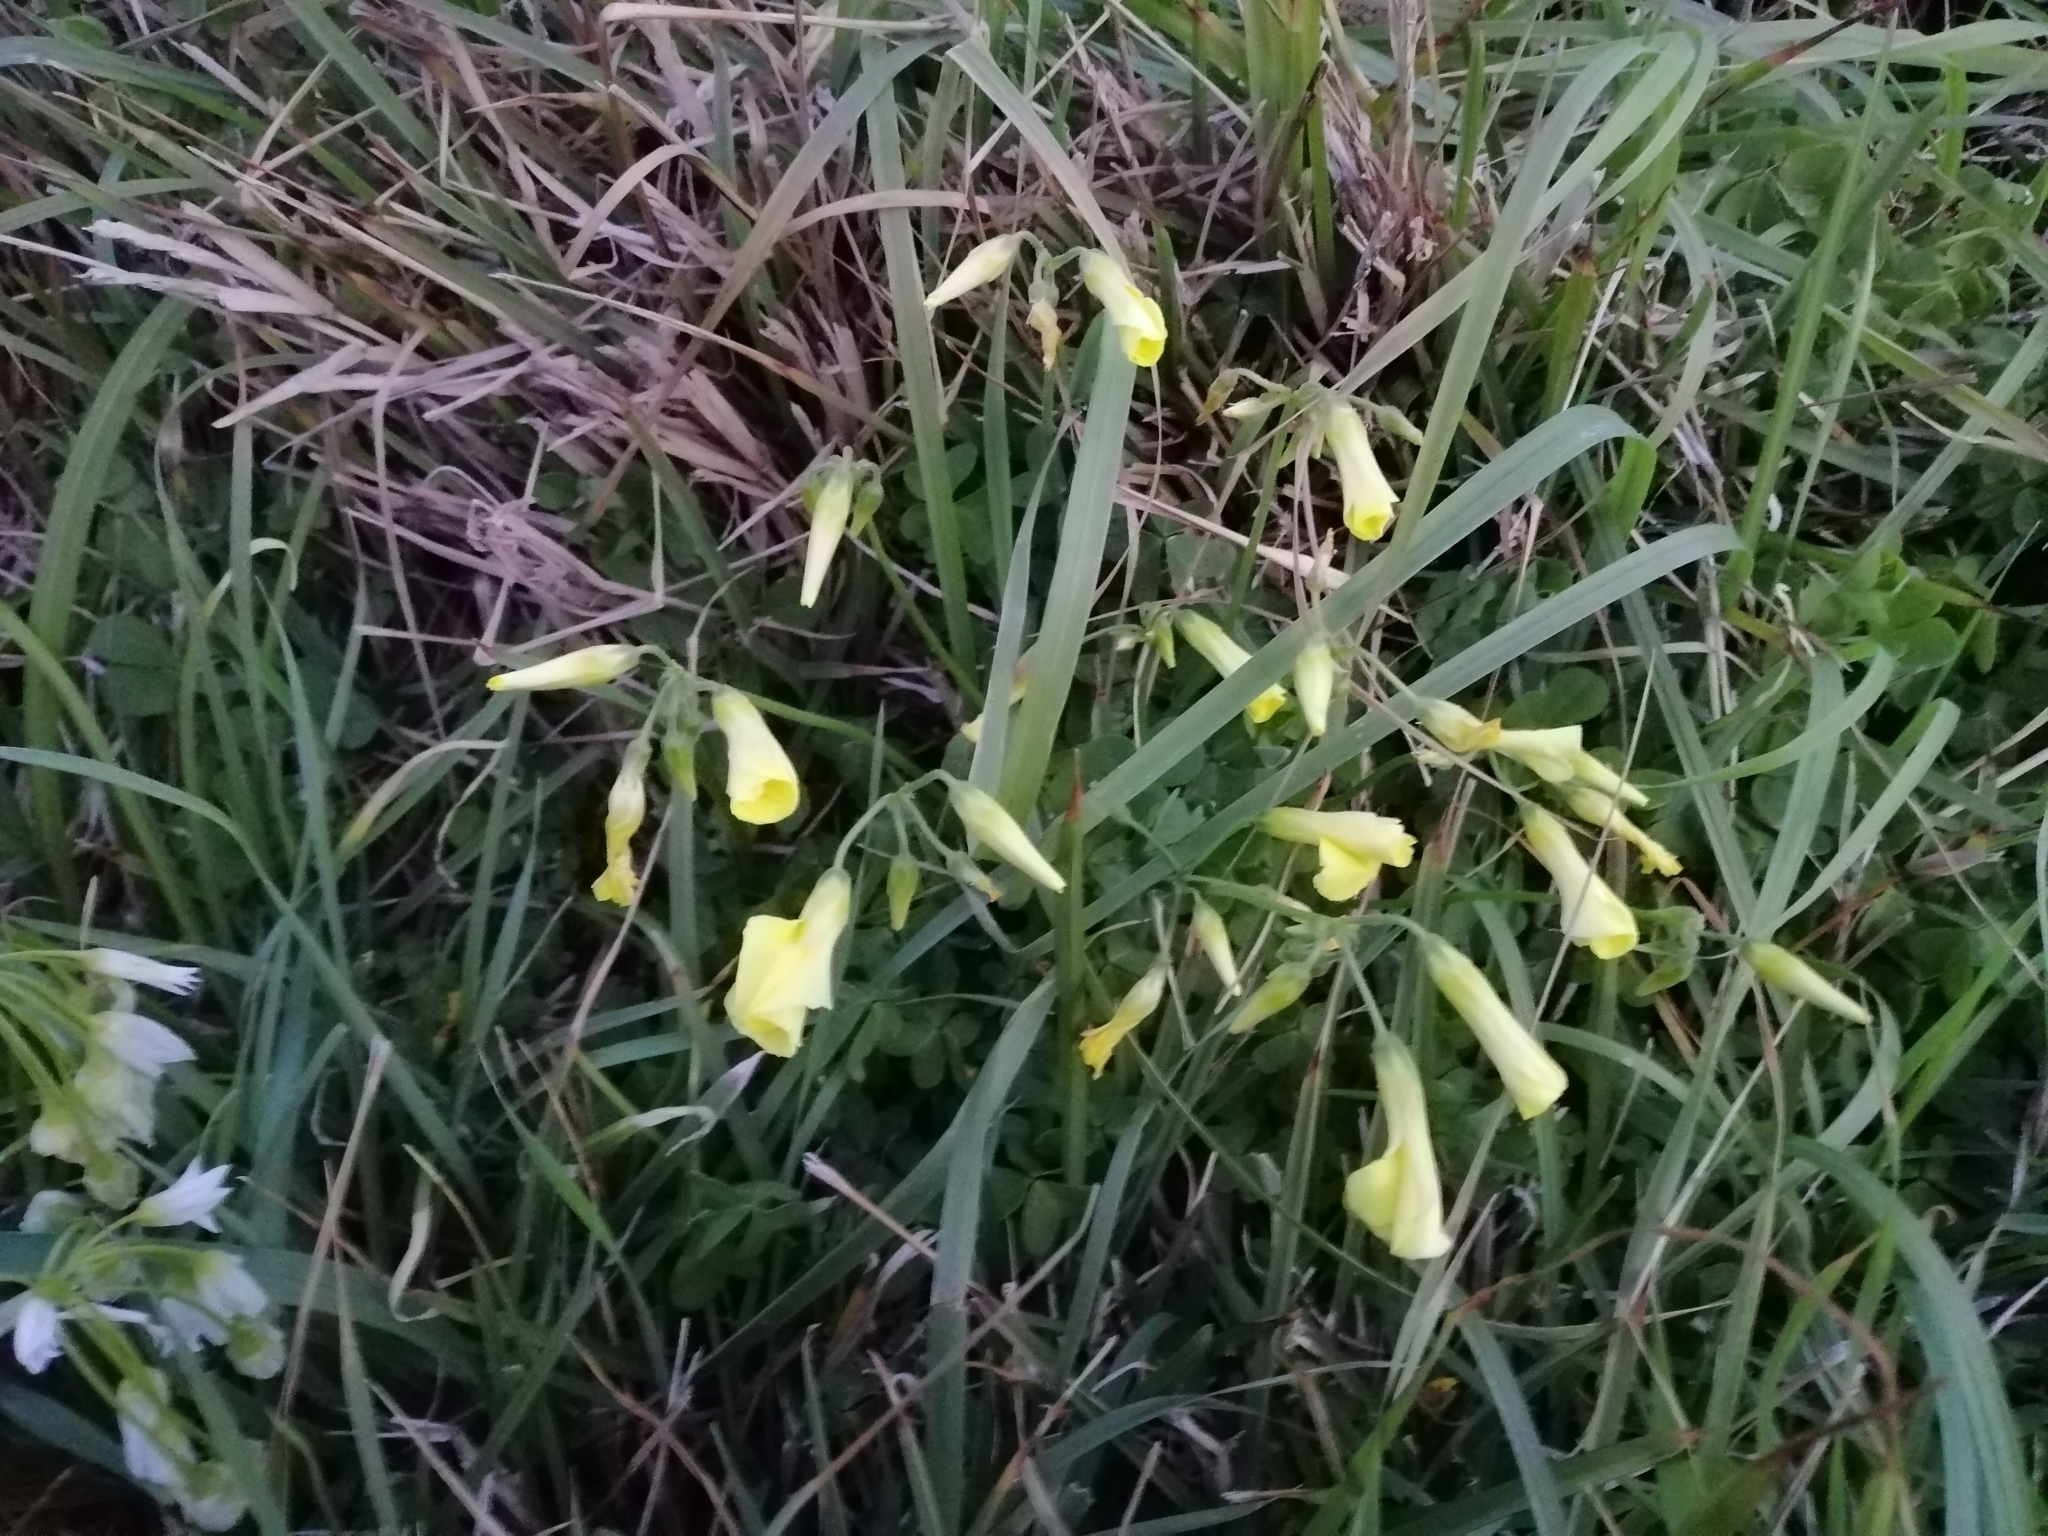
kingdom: Plantae
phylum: Tracheophyta
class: Magnoliopsida
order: Oxalidales
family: Oxalidaceae
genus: Oxalis
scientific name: Oxalis pes-caprae
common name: Bermuda-buttercup
